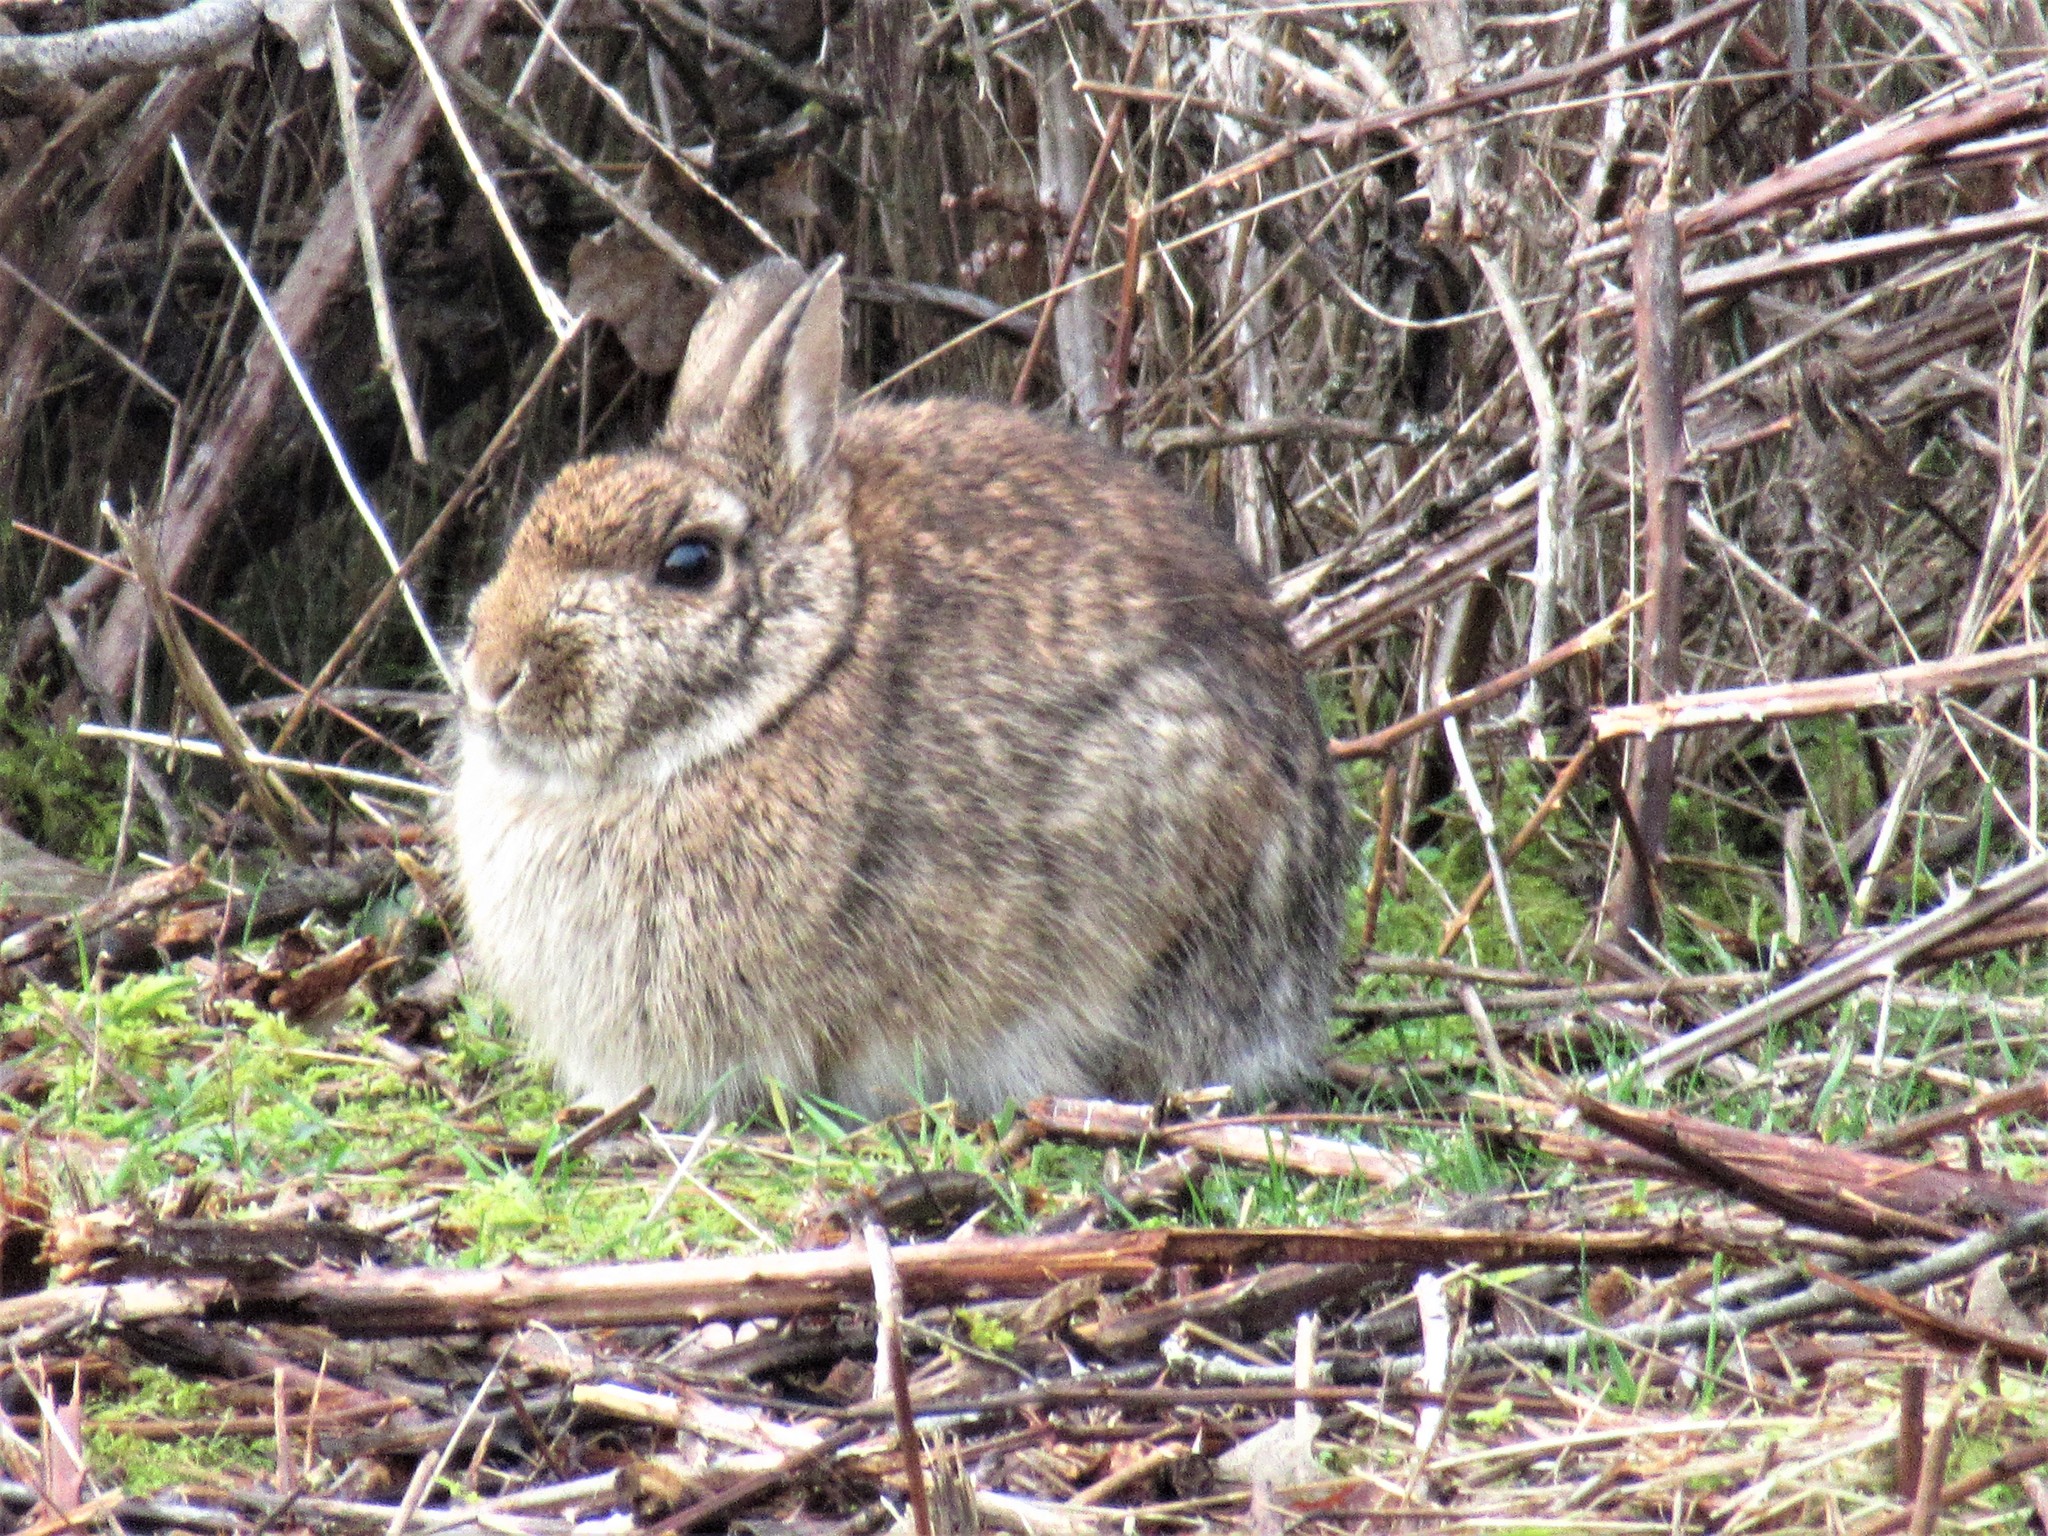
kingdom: Animalia
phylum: Chordata
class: Mammalia
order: Lagomorpha
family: Leporidae
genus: Sylvilagus
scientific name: Sylvilagus floridanus
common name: Eastern cottontail
